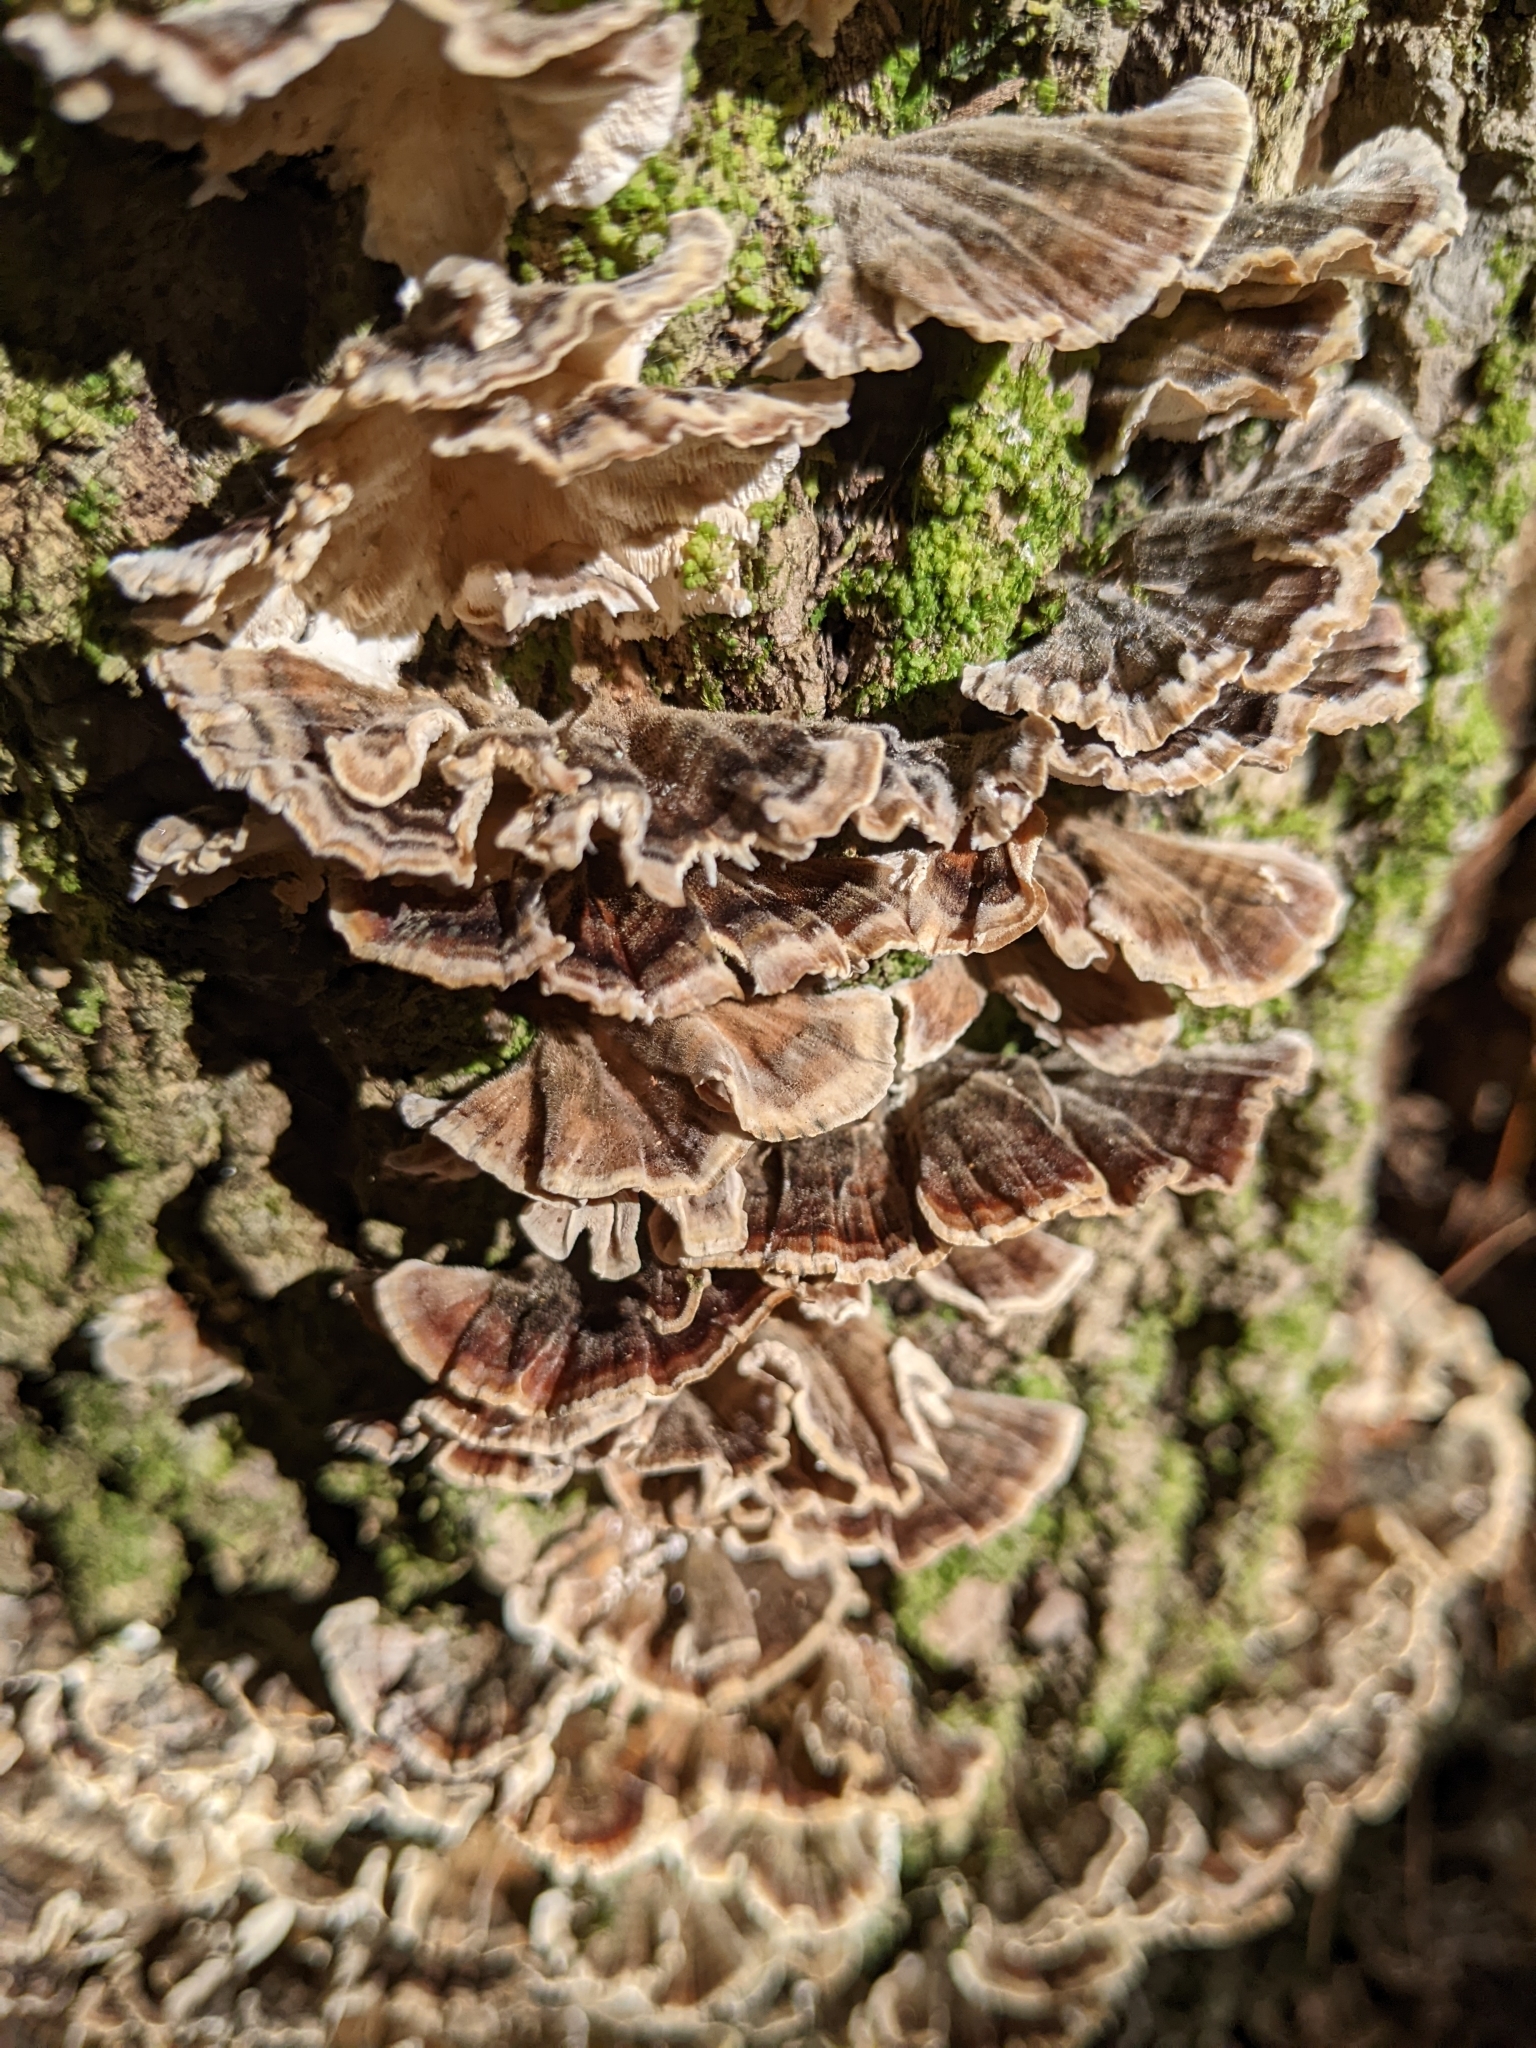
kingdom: Fungi
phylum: Basidiomycota
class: Agaricomycetes
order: Polyporales
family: Polyporaceae
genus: Trametes
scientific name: Trametes versicolor
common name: Turkeytail
